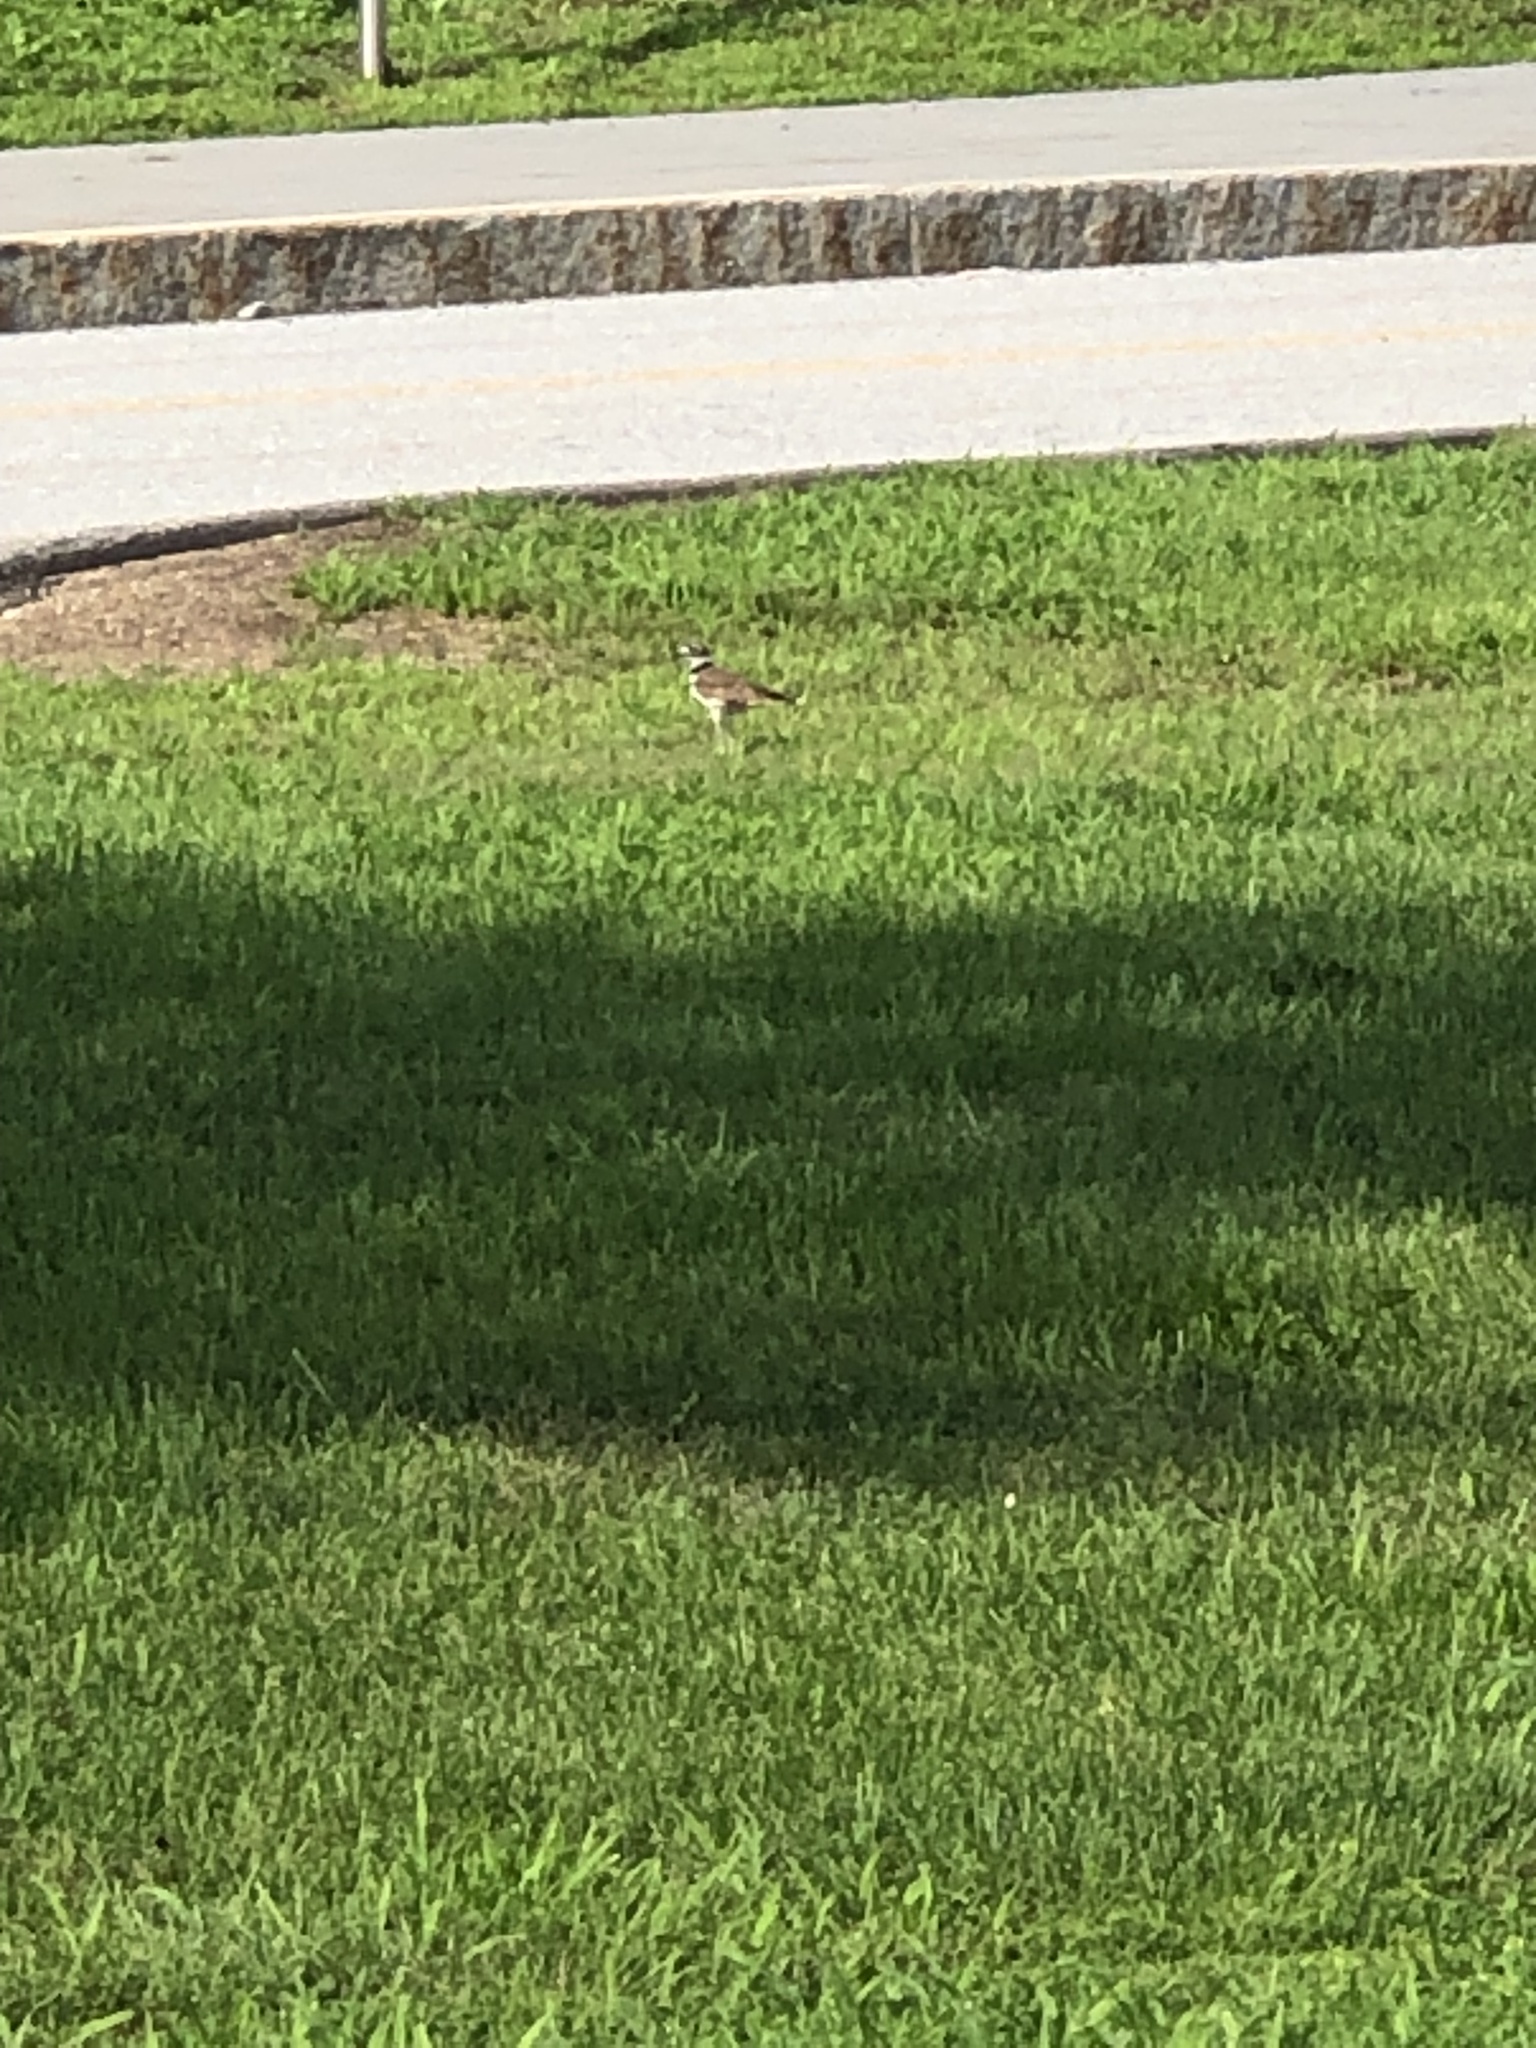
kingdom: Animalia
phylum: Chordata
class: Aves
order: Charadriiformes
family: Charadriidae
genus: Charadrius
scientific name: Charadrius vociferus
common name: Killdeer
